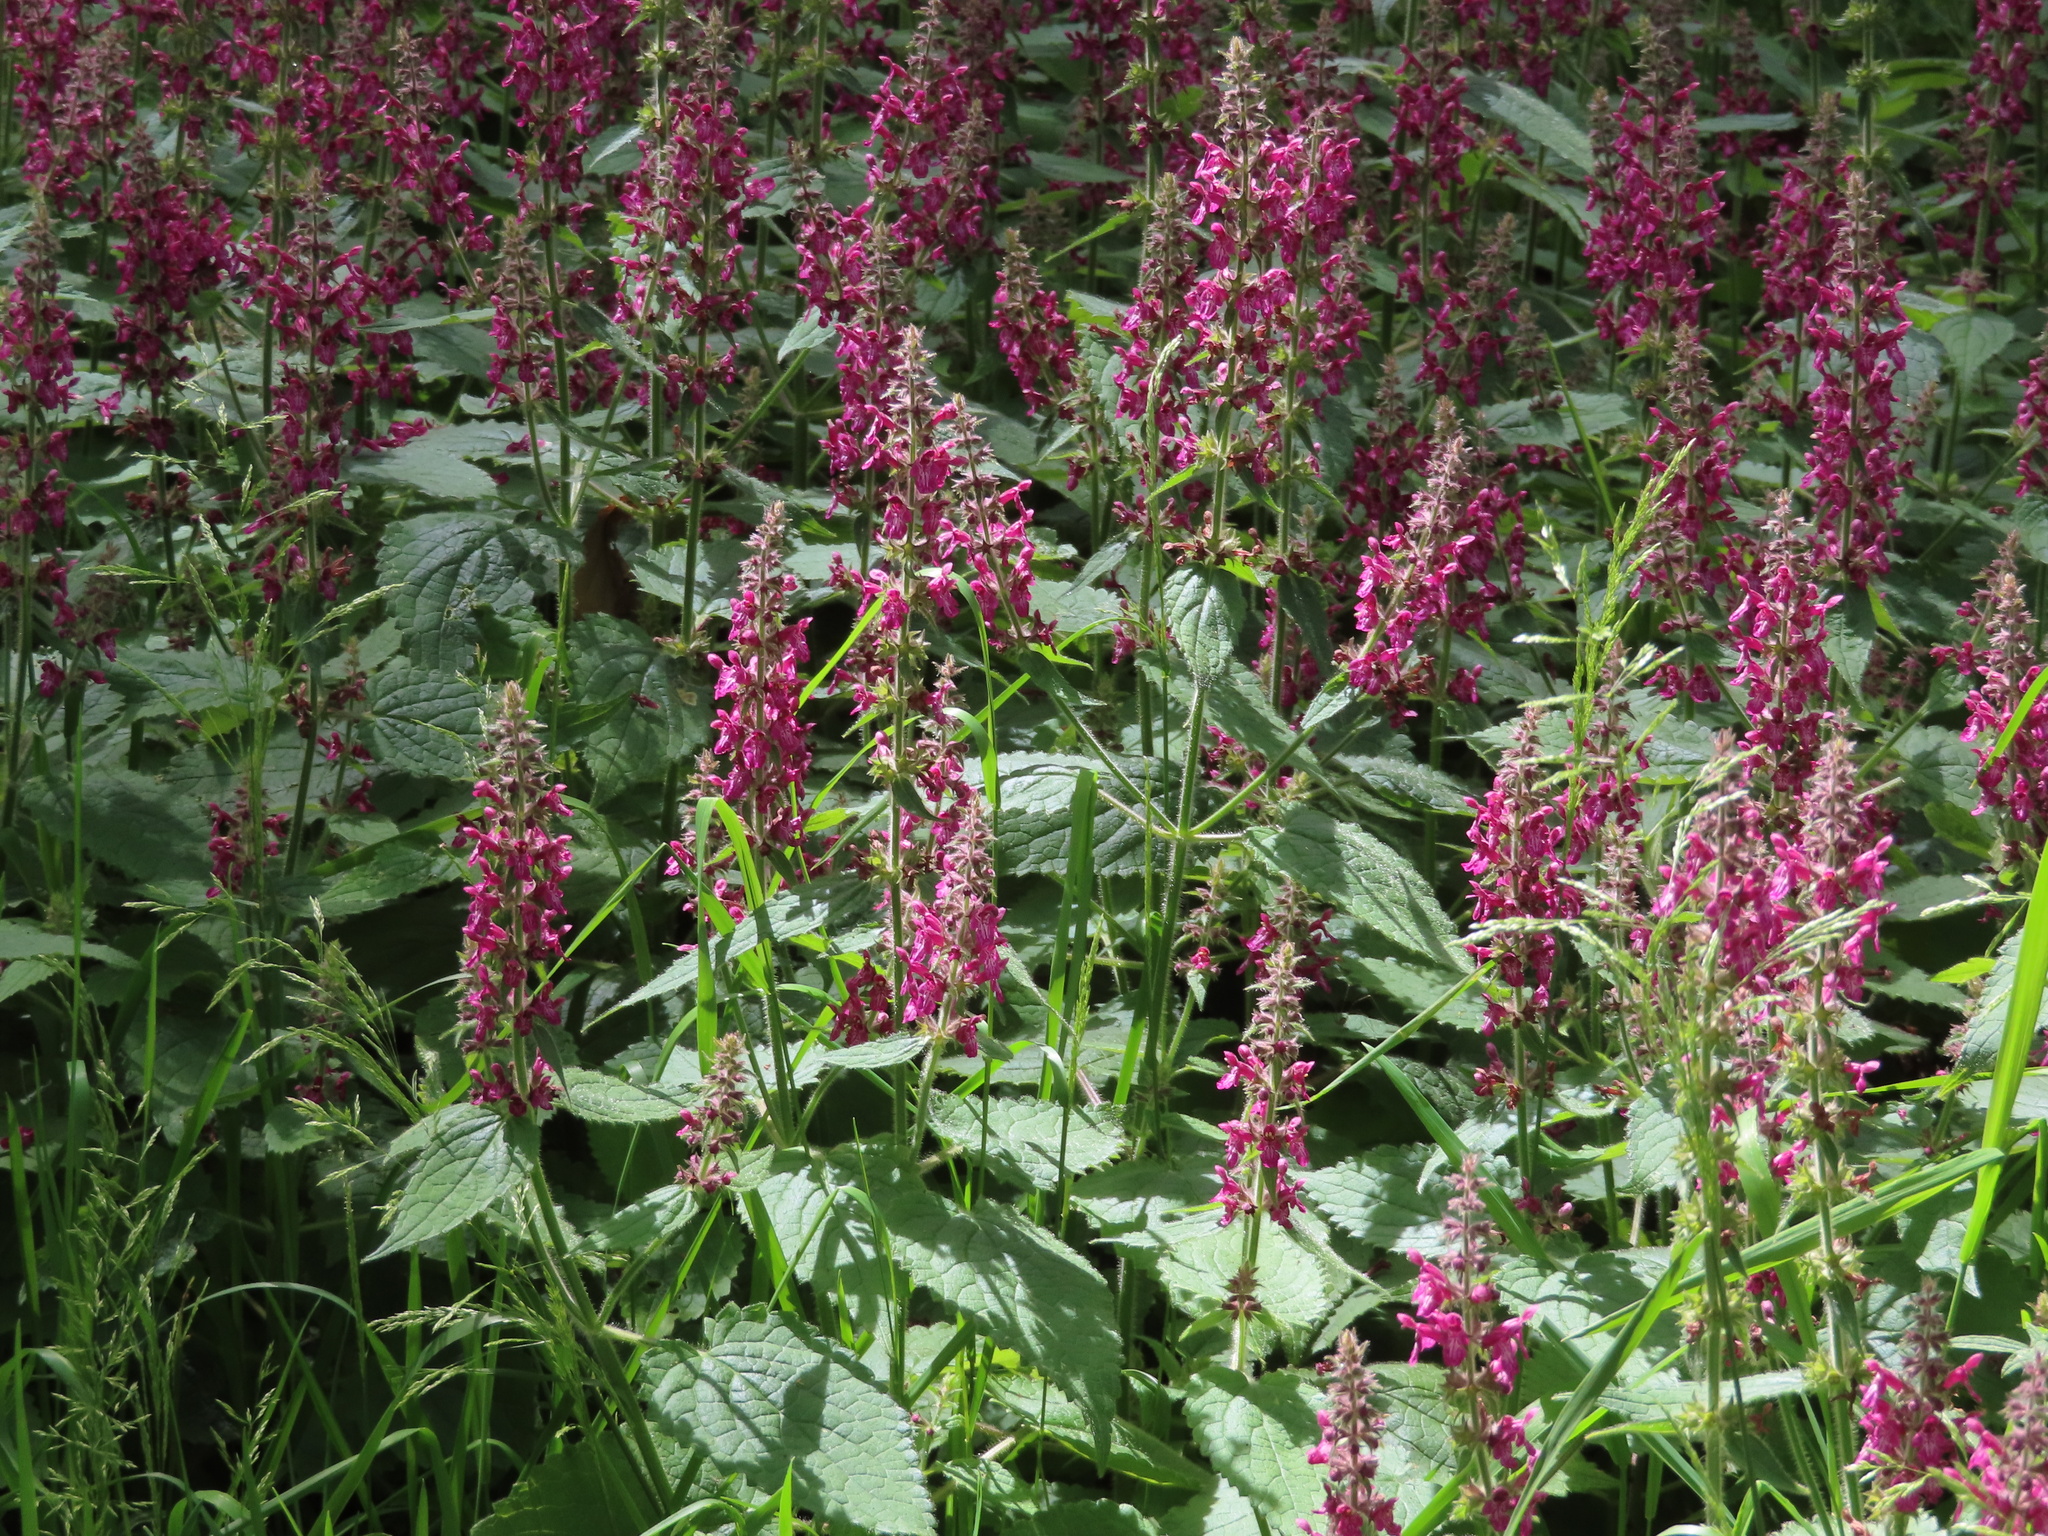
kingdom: Plantae
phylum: Tracheophyta
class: Magnoliopsida
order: Lamiales
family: Lamiaceae
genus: Stachys
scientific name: Stachys sylvatica
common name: Hedge woundwort
